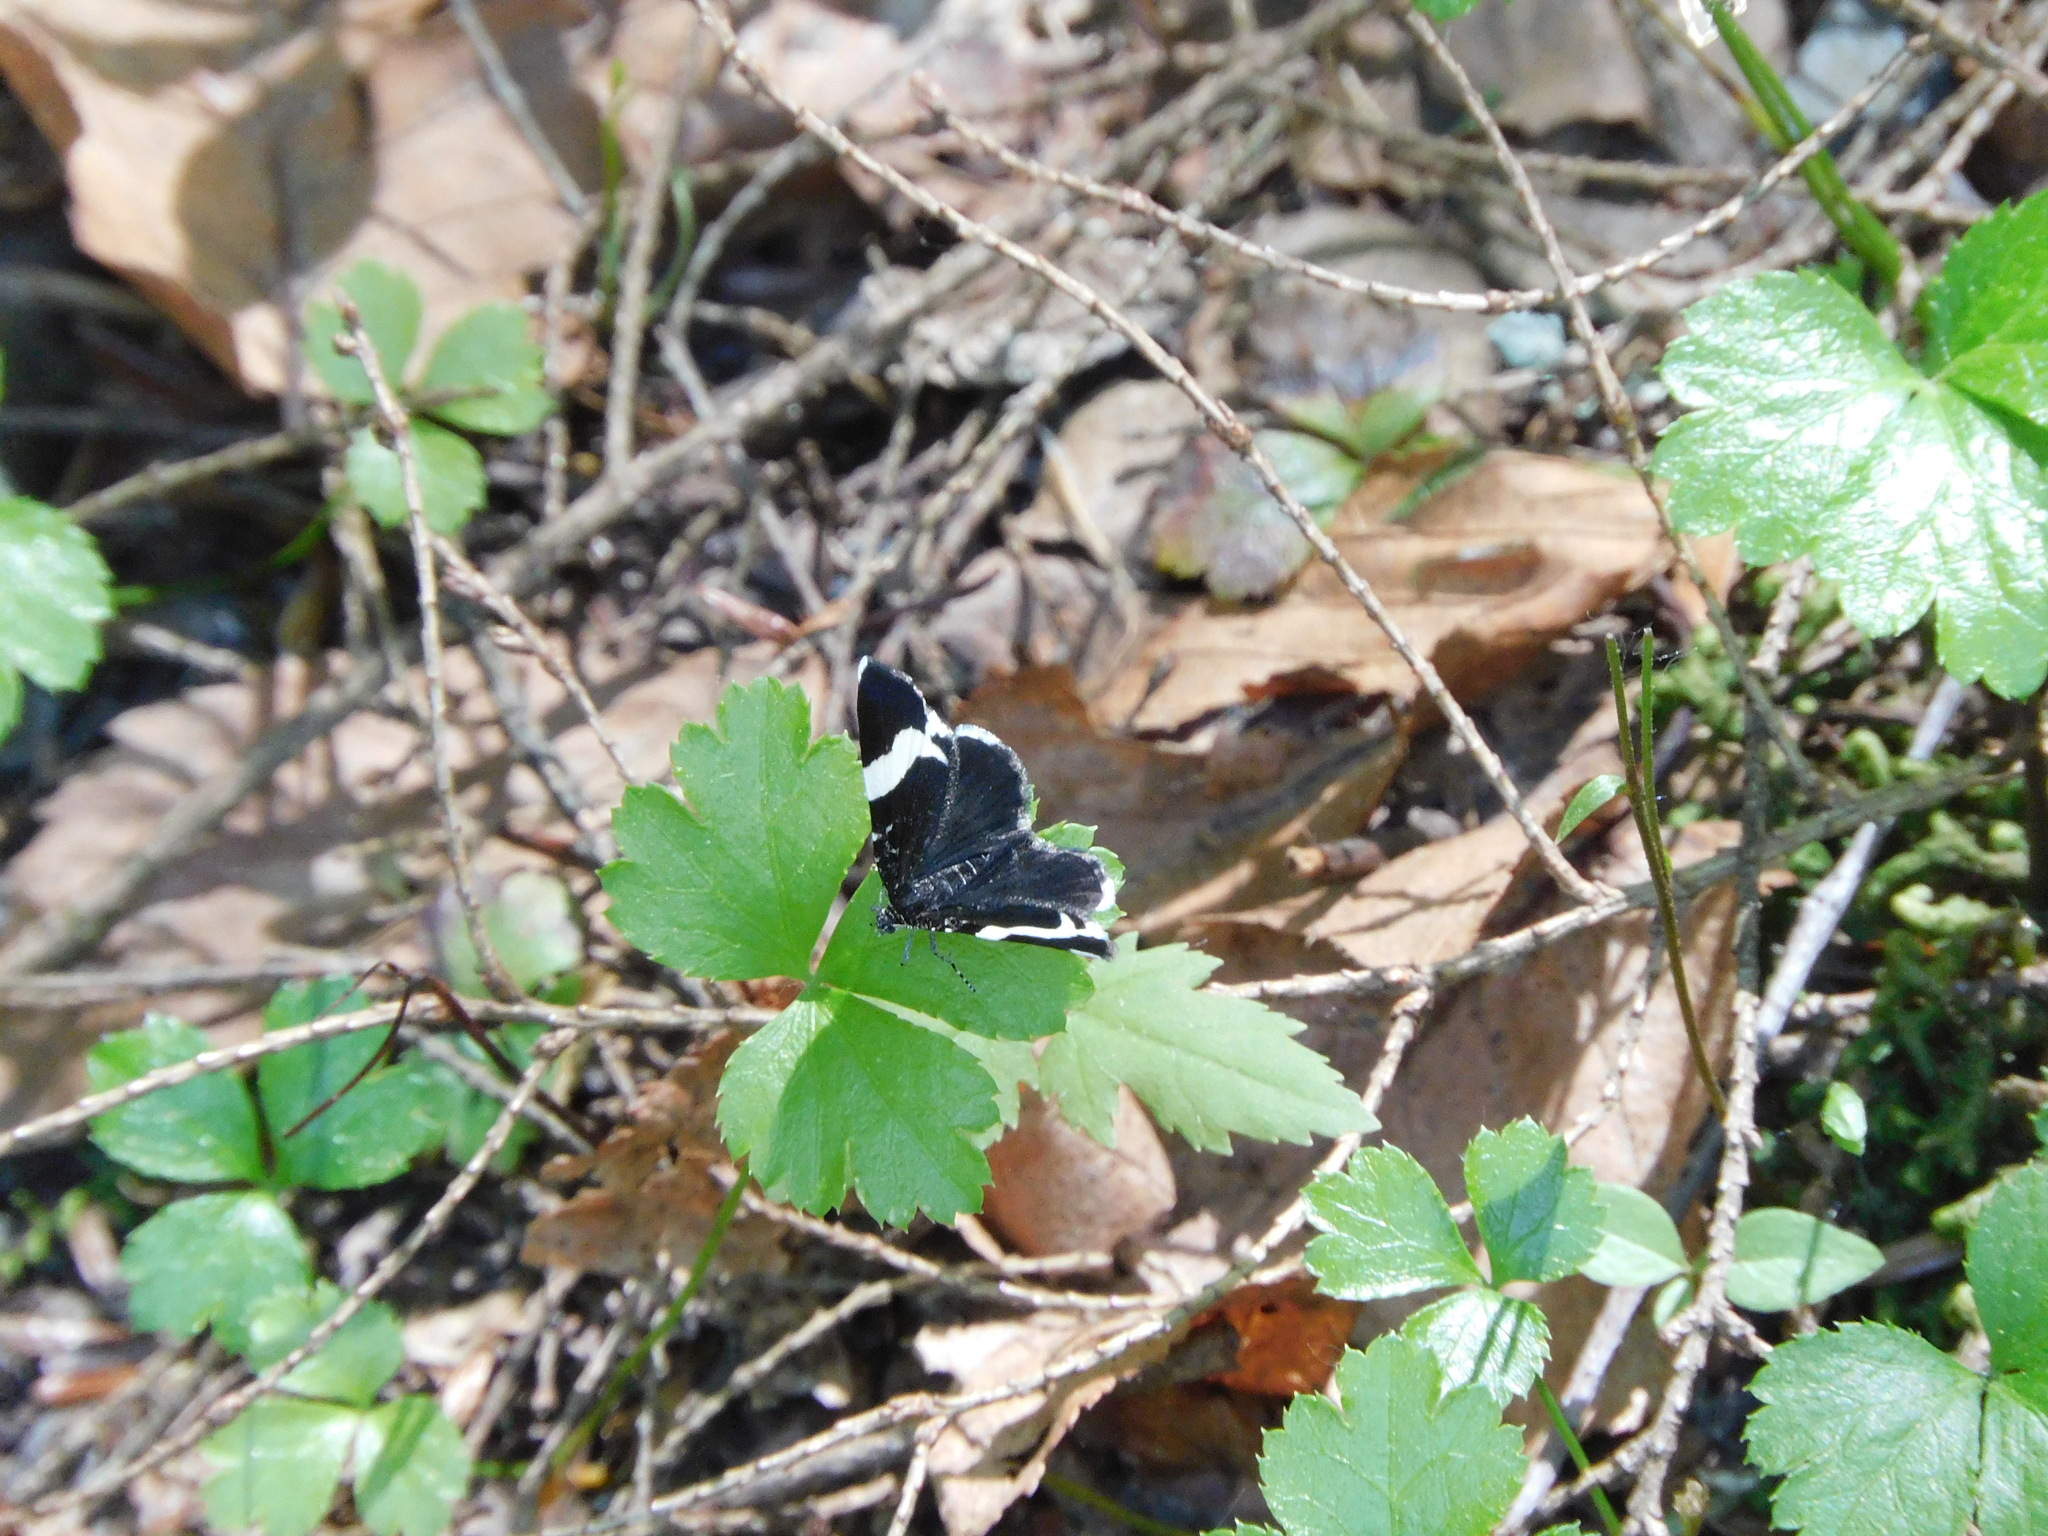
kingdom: Animalia
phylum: Arthropoda
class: Insecta
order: Lepidoptera
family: Geometridae
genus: Trichodezia
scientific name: Trichodezia albovittata
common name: White striped black
